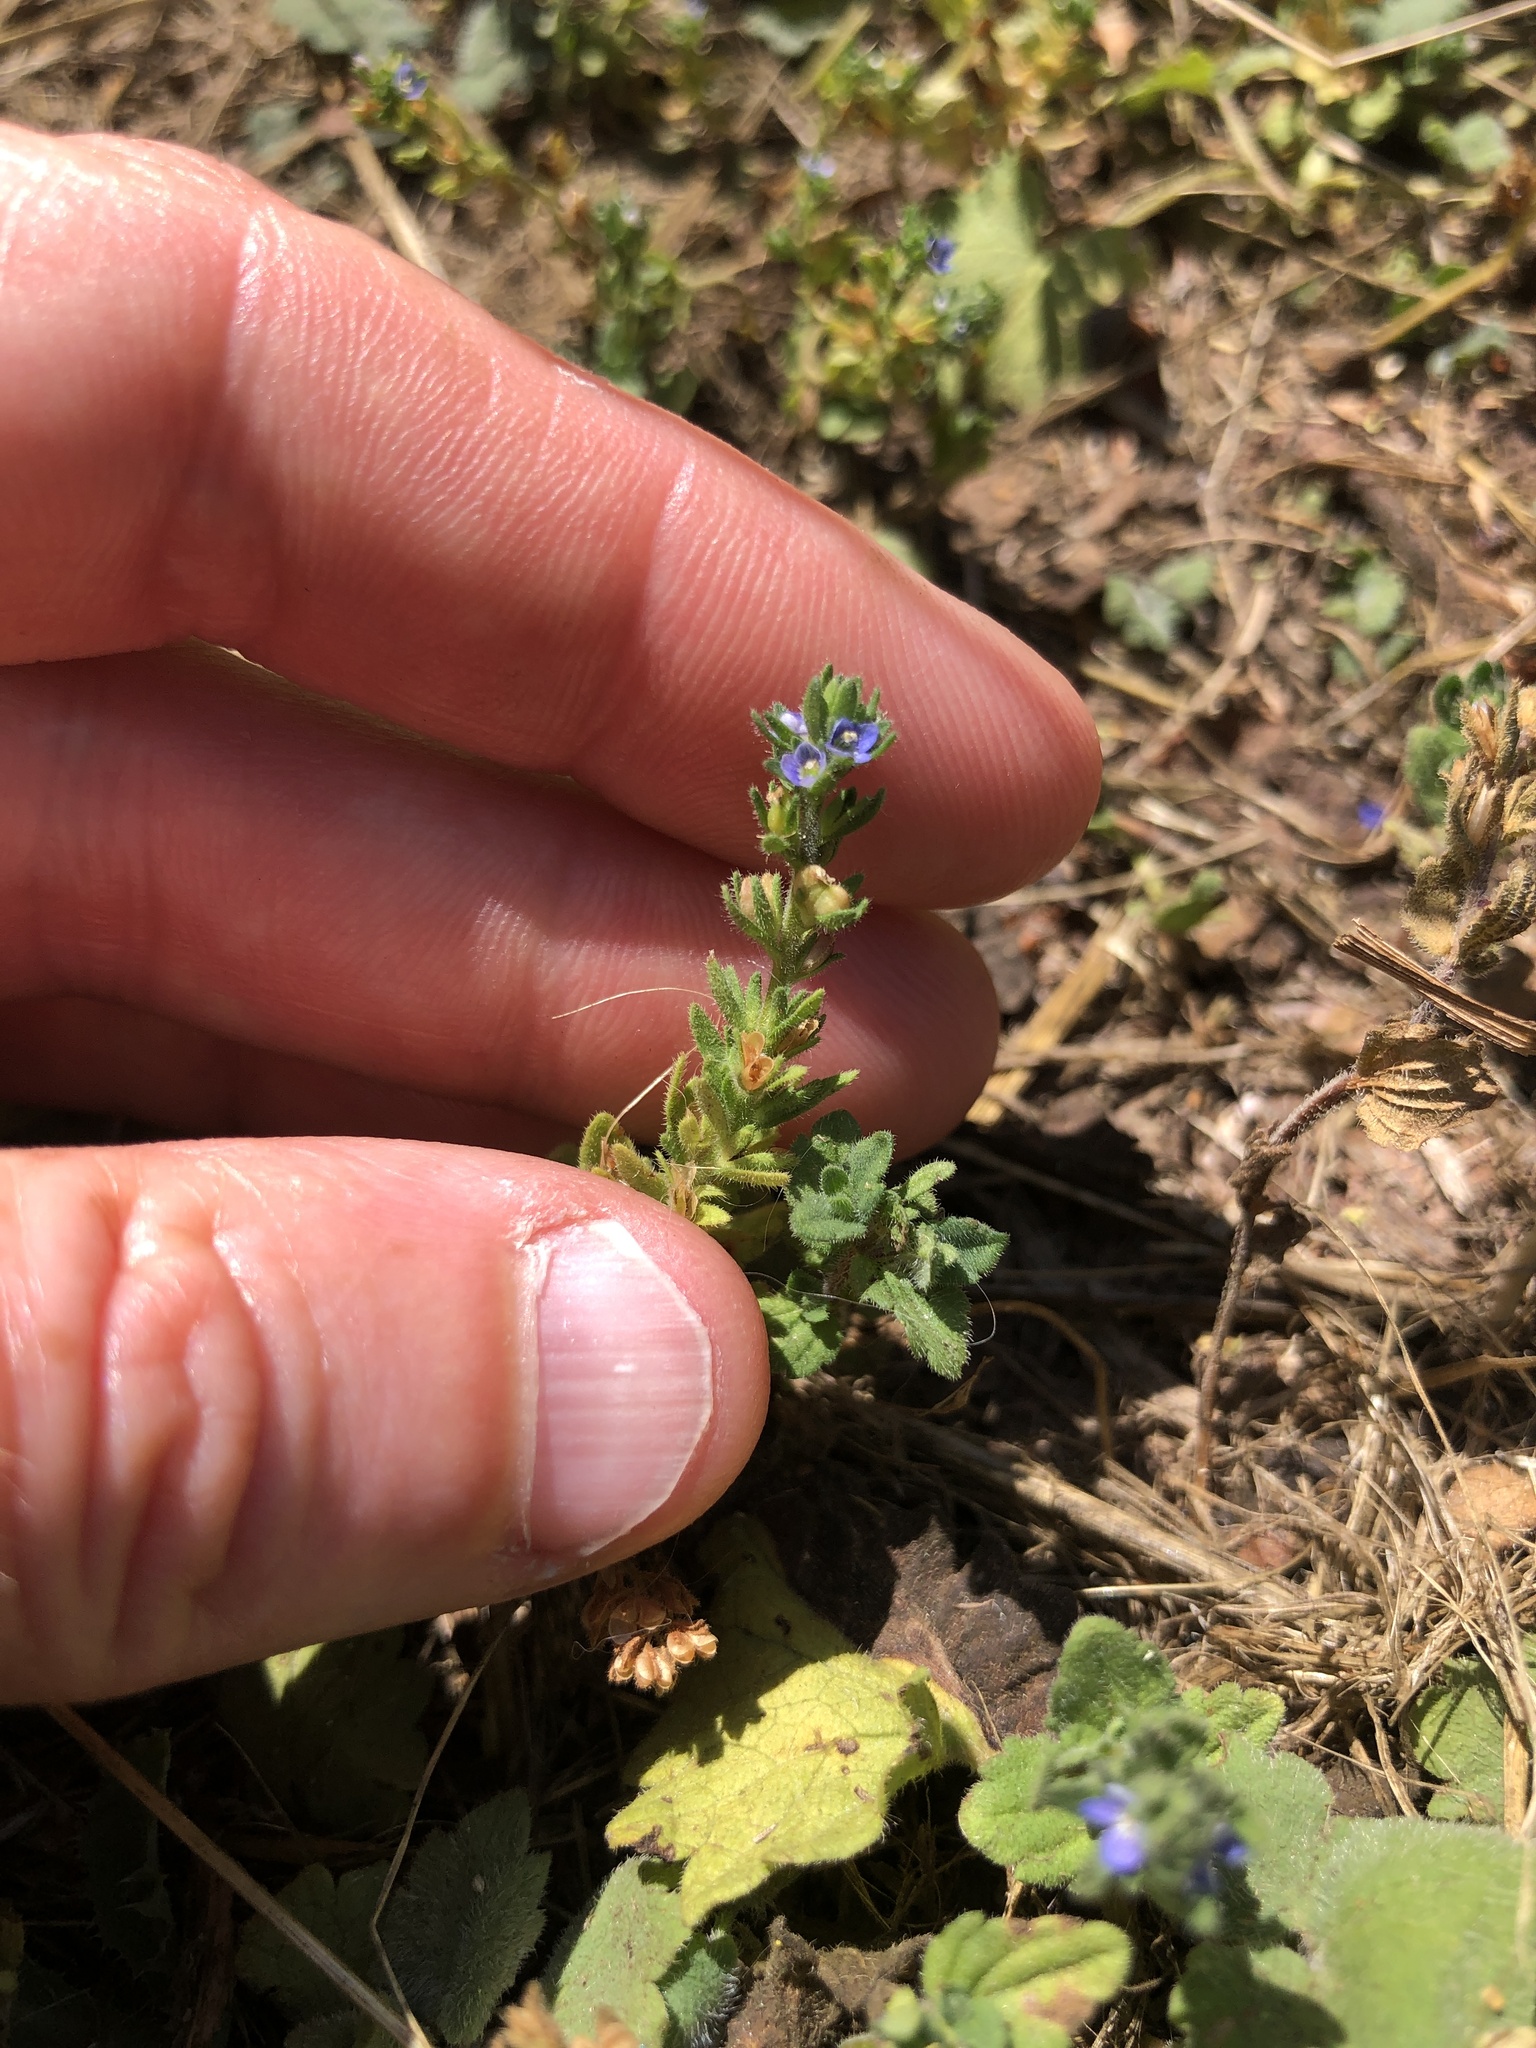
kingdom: Plantae
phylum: Tracheophyta
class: Magnoliopsida
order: Lamiales
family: Plantaginaceae
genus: Veronica
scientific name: Veronica arvensis
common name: Corn speedwell
